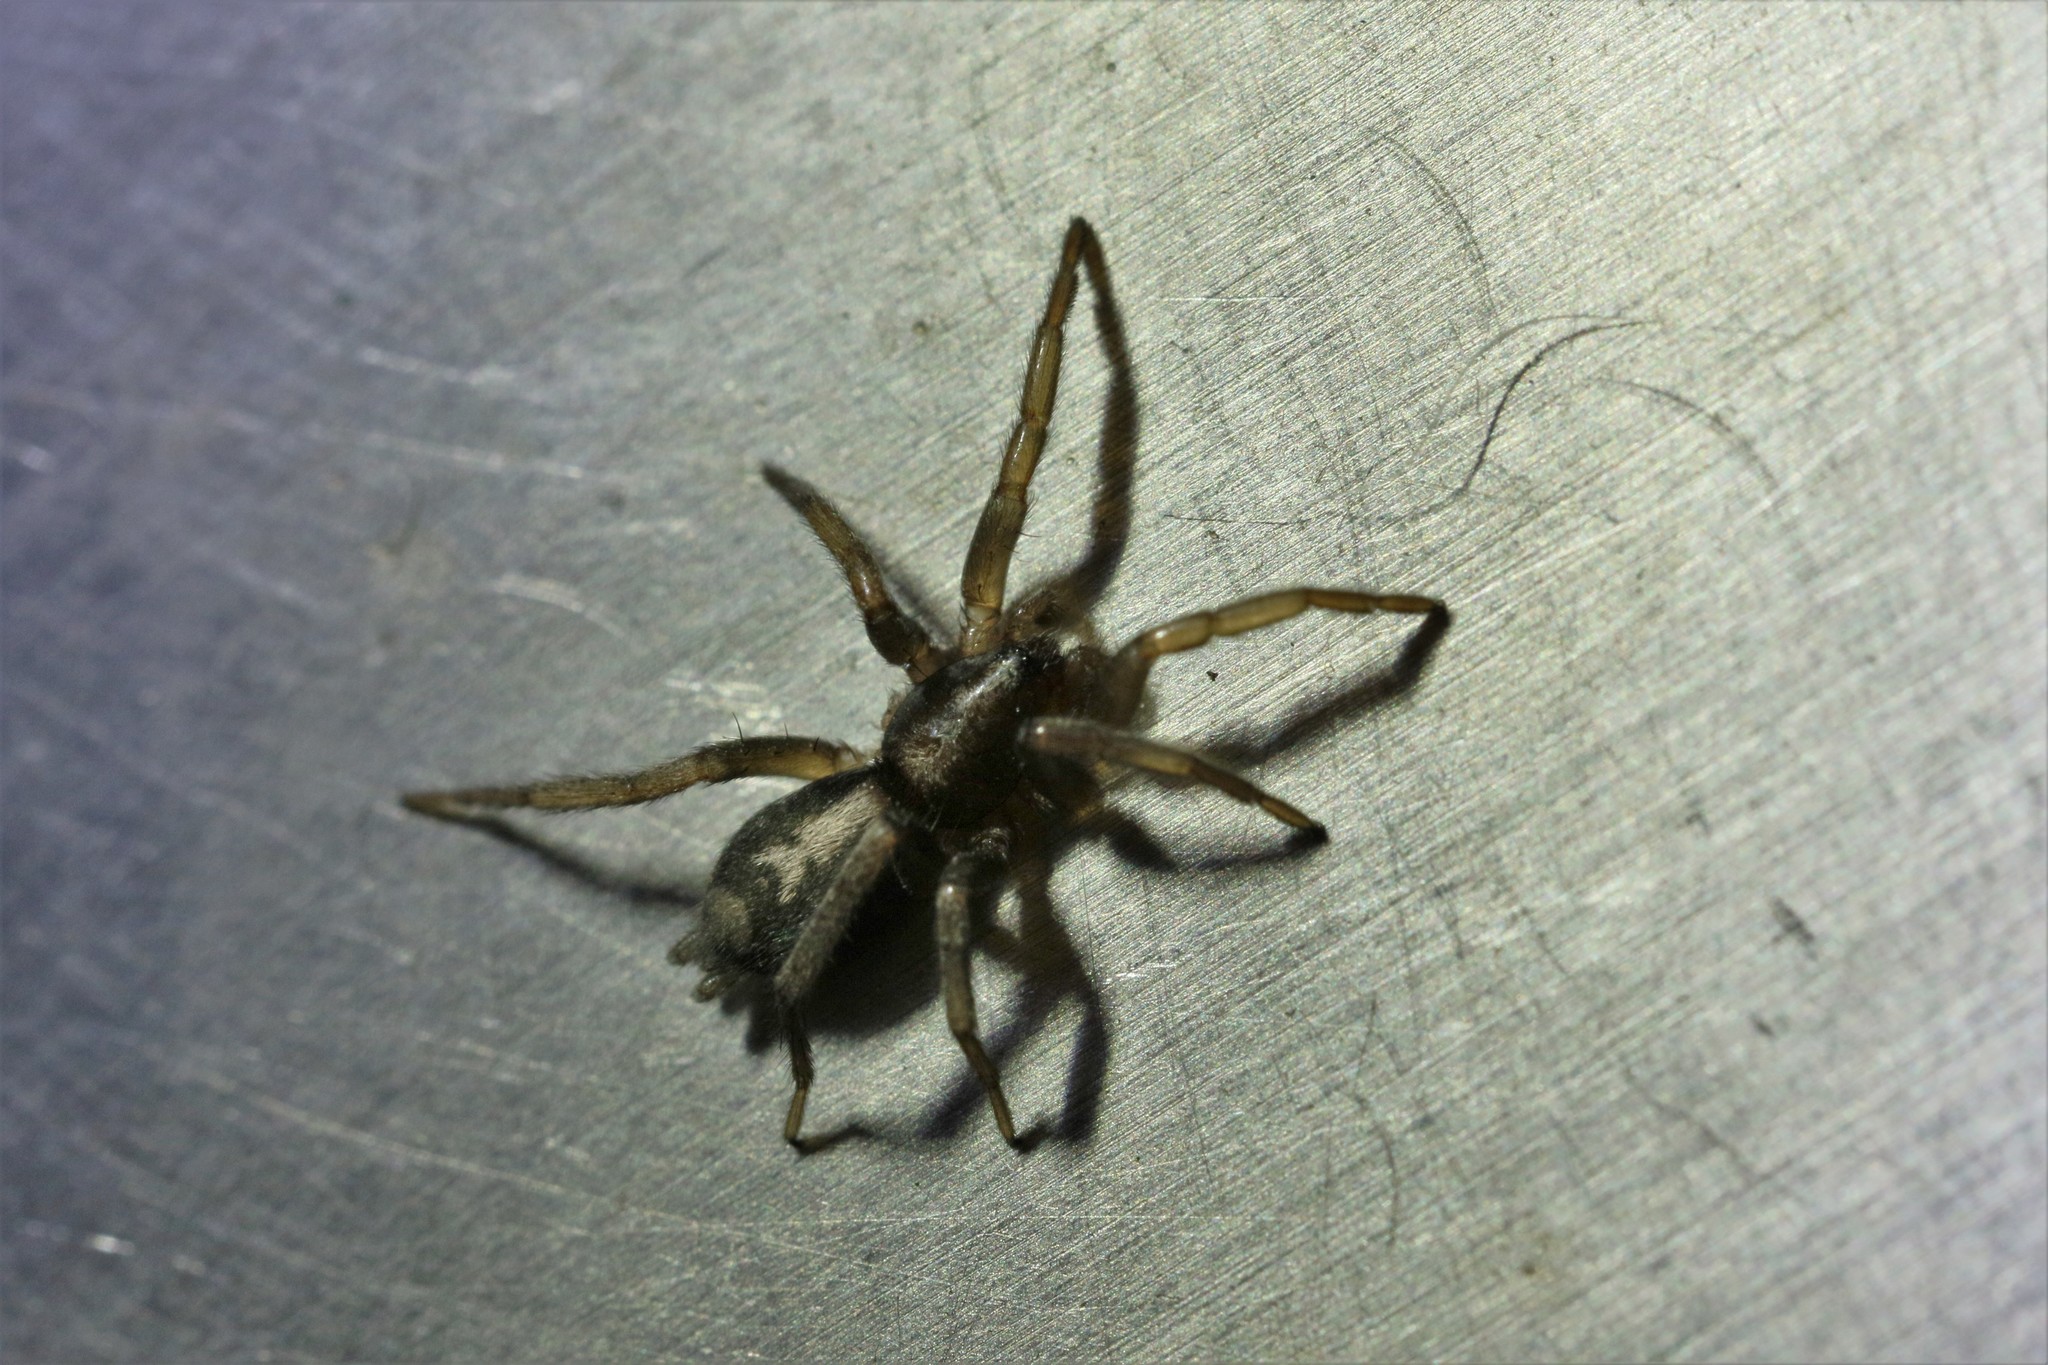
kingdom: Animalia
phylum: Arthropoda
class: Arachnida
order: Araneae
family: Gnaphosidae
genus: Herpyllus
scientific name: Herpyllus ecclesiasticus
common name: Eastern parson spider
